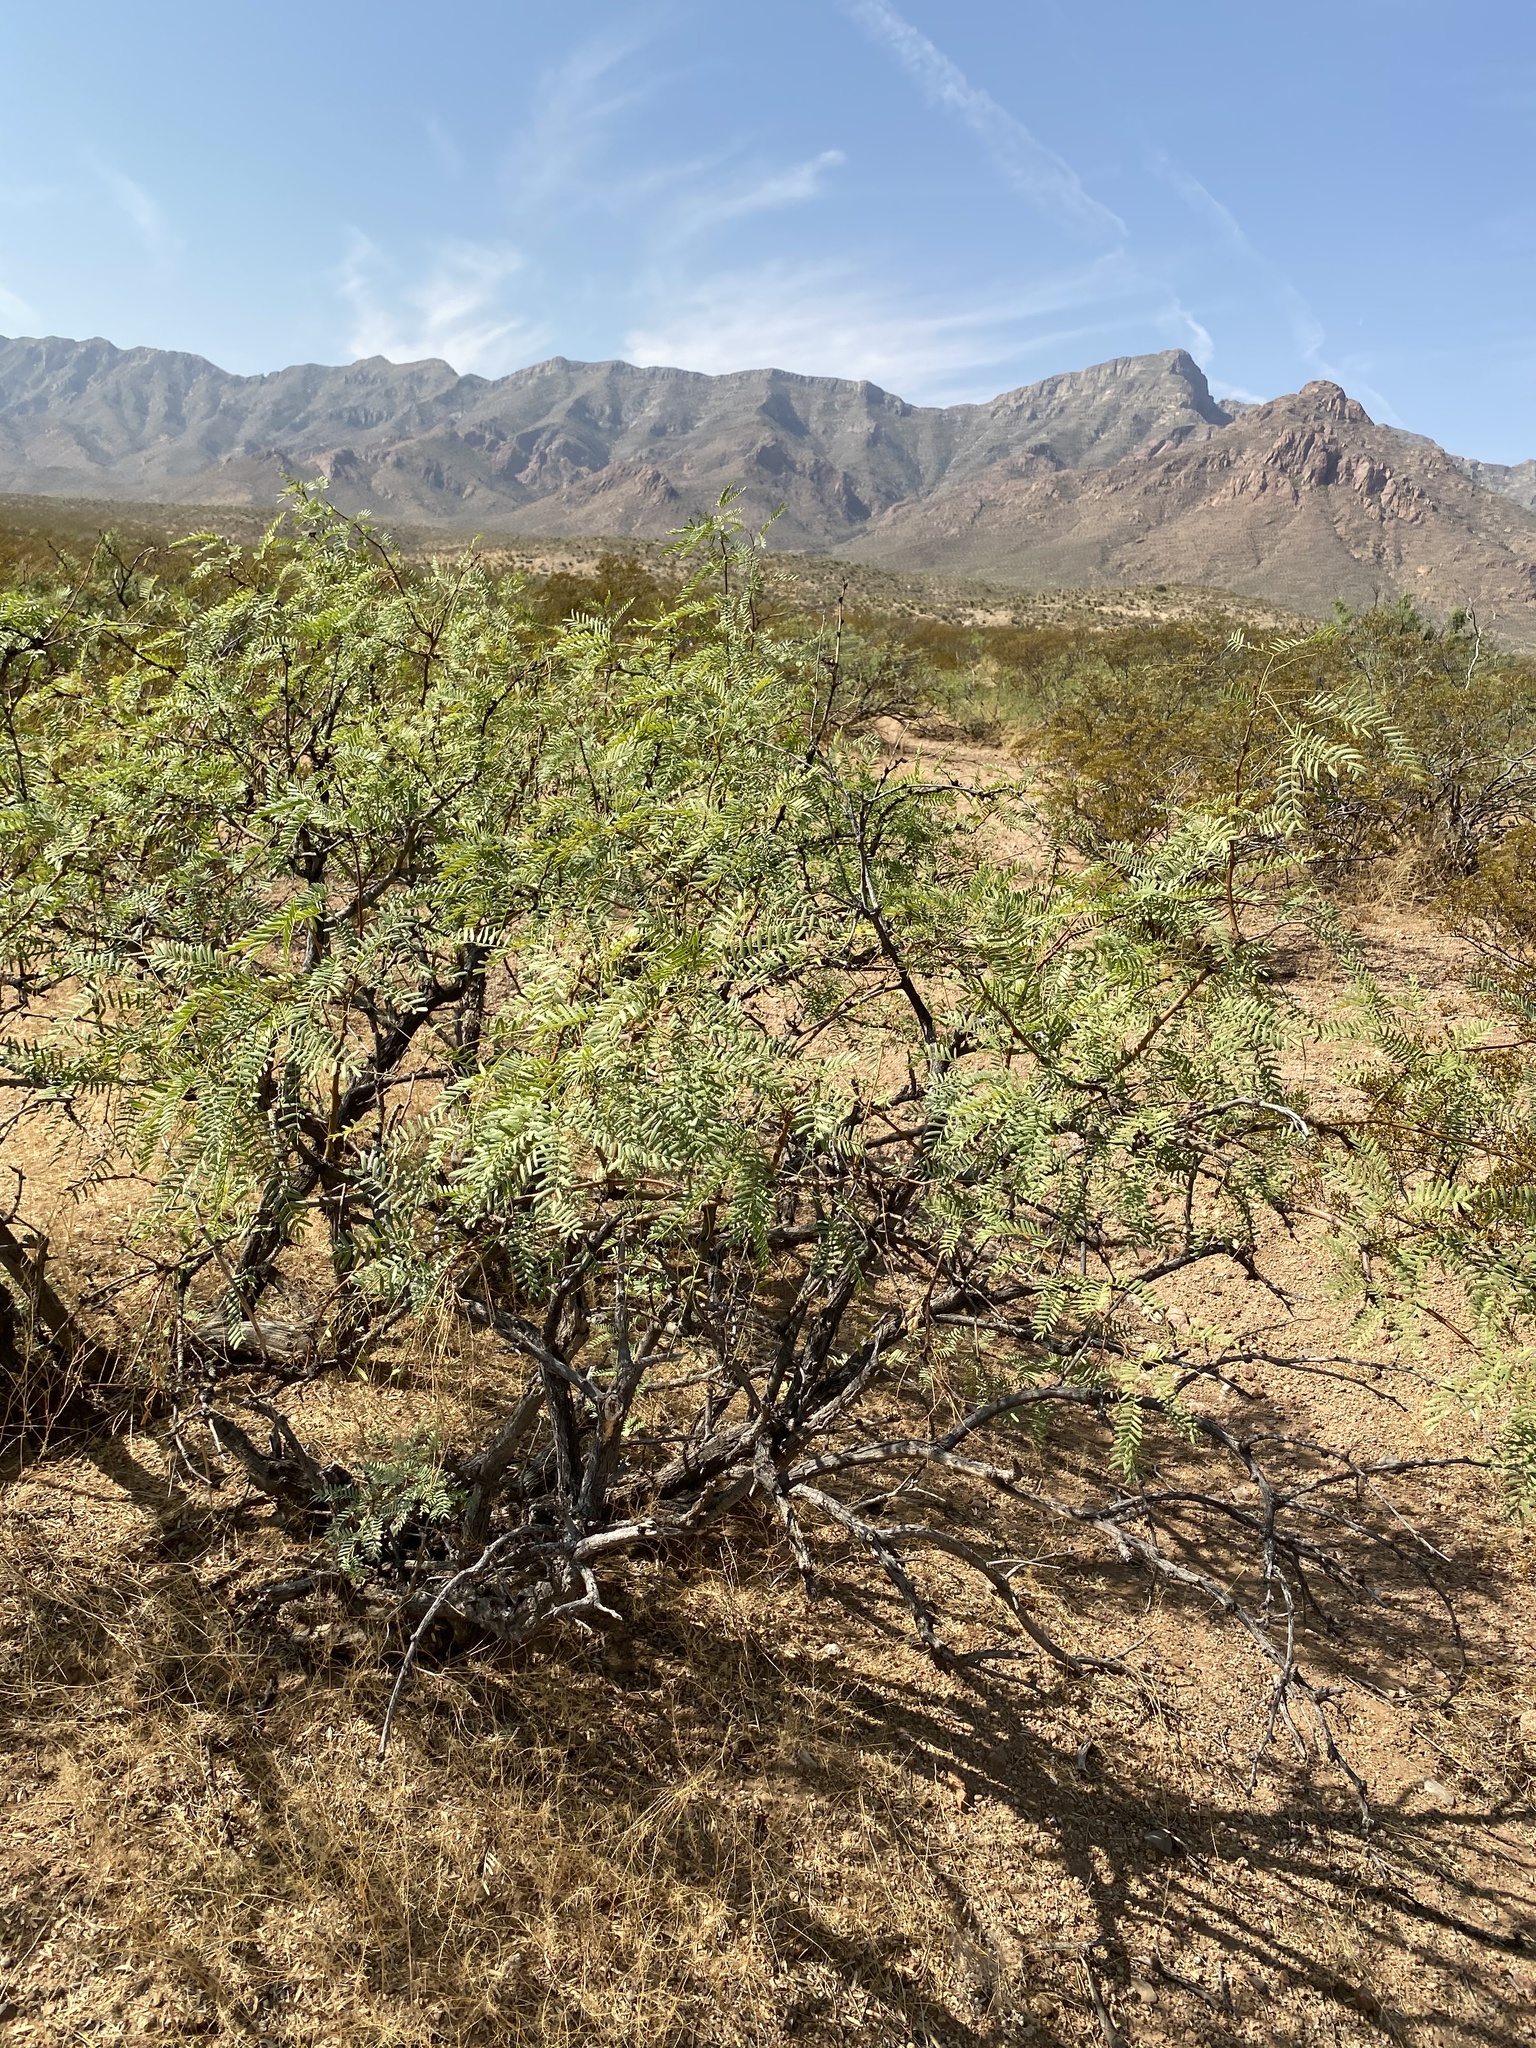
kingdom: Plantae
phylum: Tracheophyta
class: Magnoliopsida
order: Fabales
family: Fabaceae
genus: Prosopis
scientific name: Prosopis glandulosa
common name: Honey mesquite
